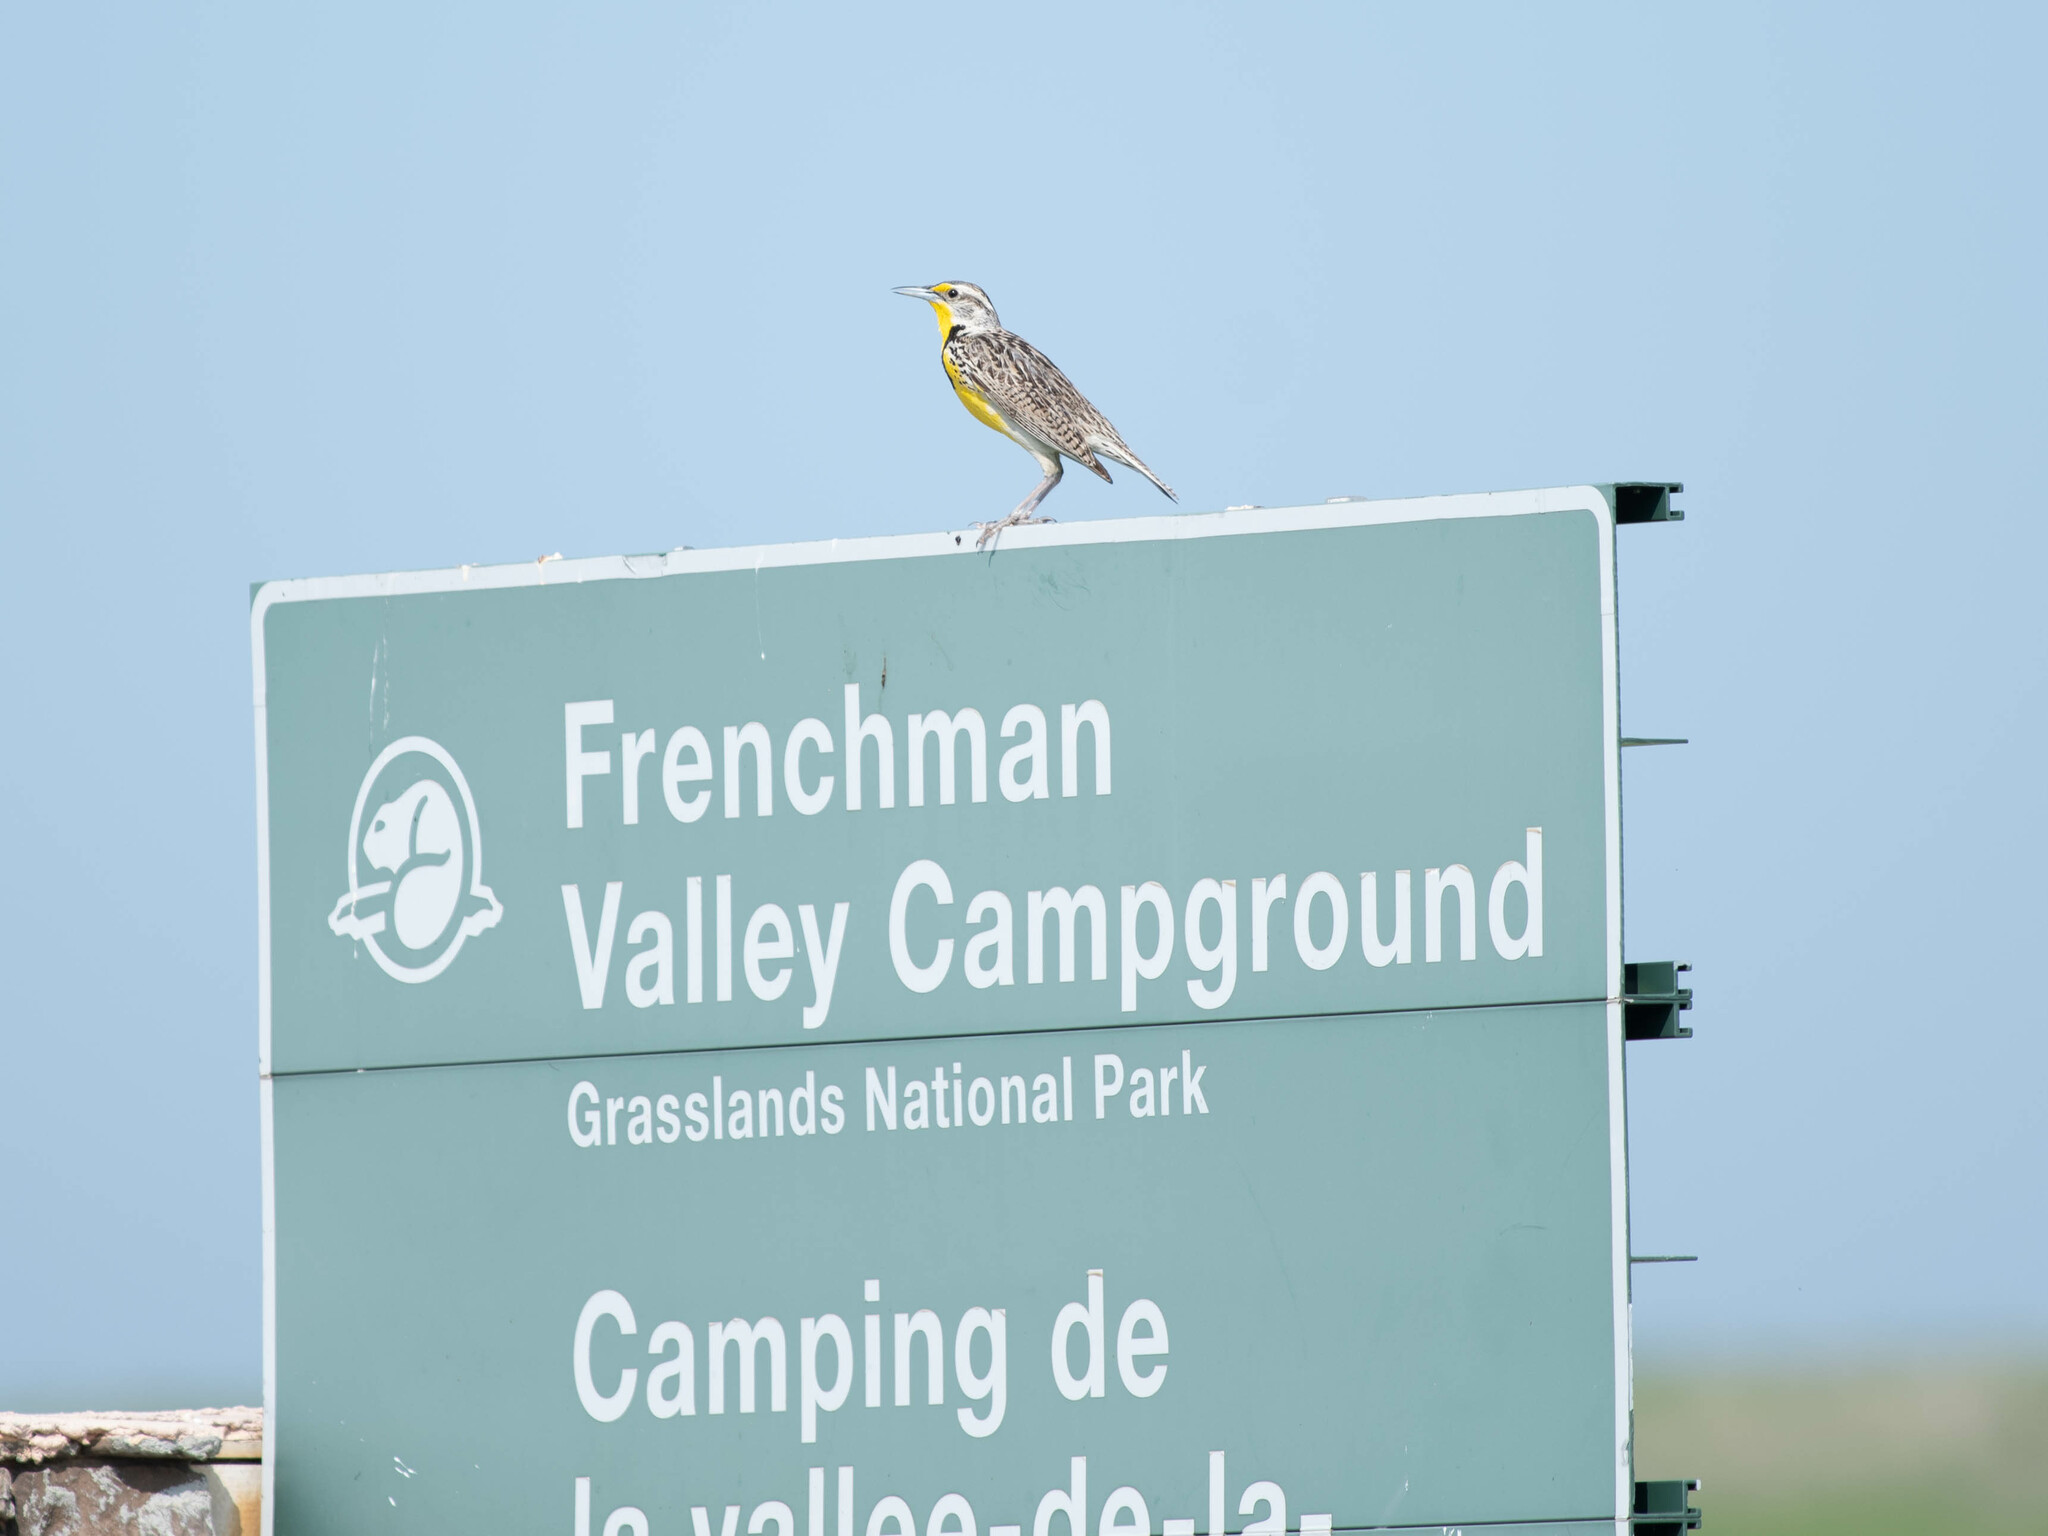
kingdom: Animalia
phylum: Chordata
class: Aves
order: Passeriformes
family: Icteridae
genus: Sturnella
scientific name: Sturnella neglecta
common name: Western meadowlark
